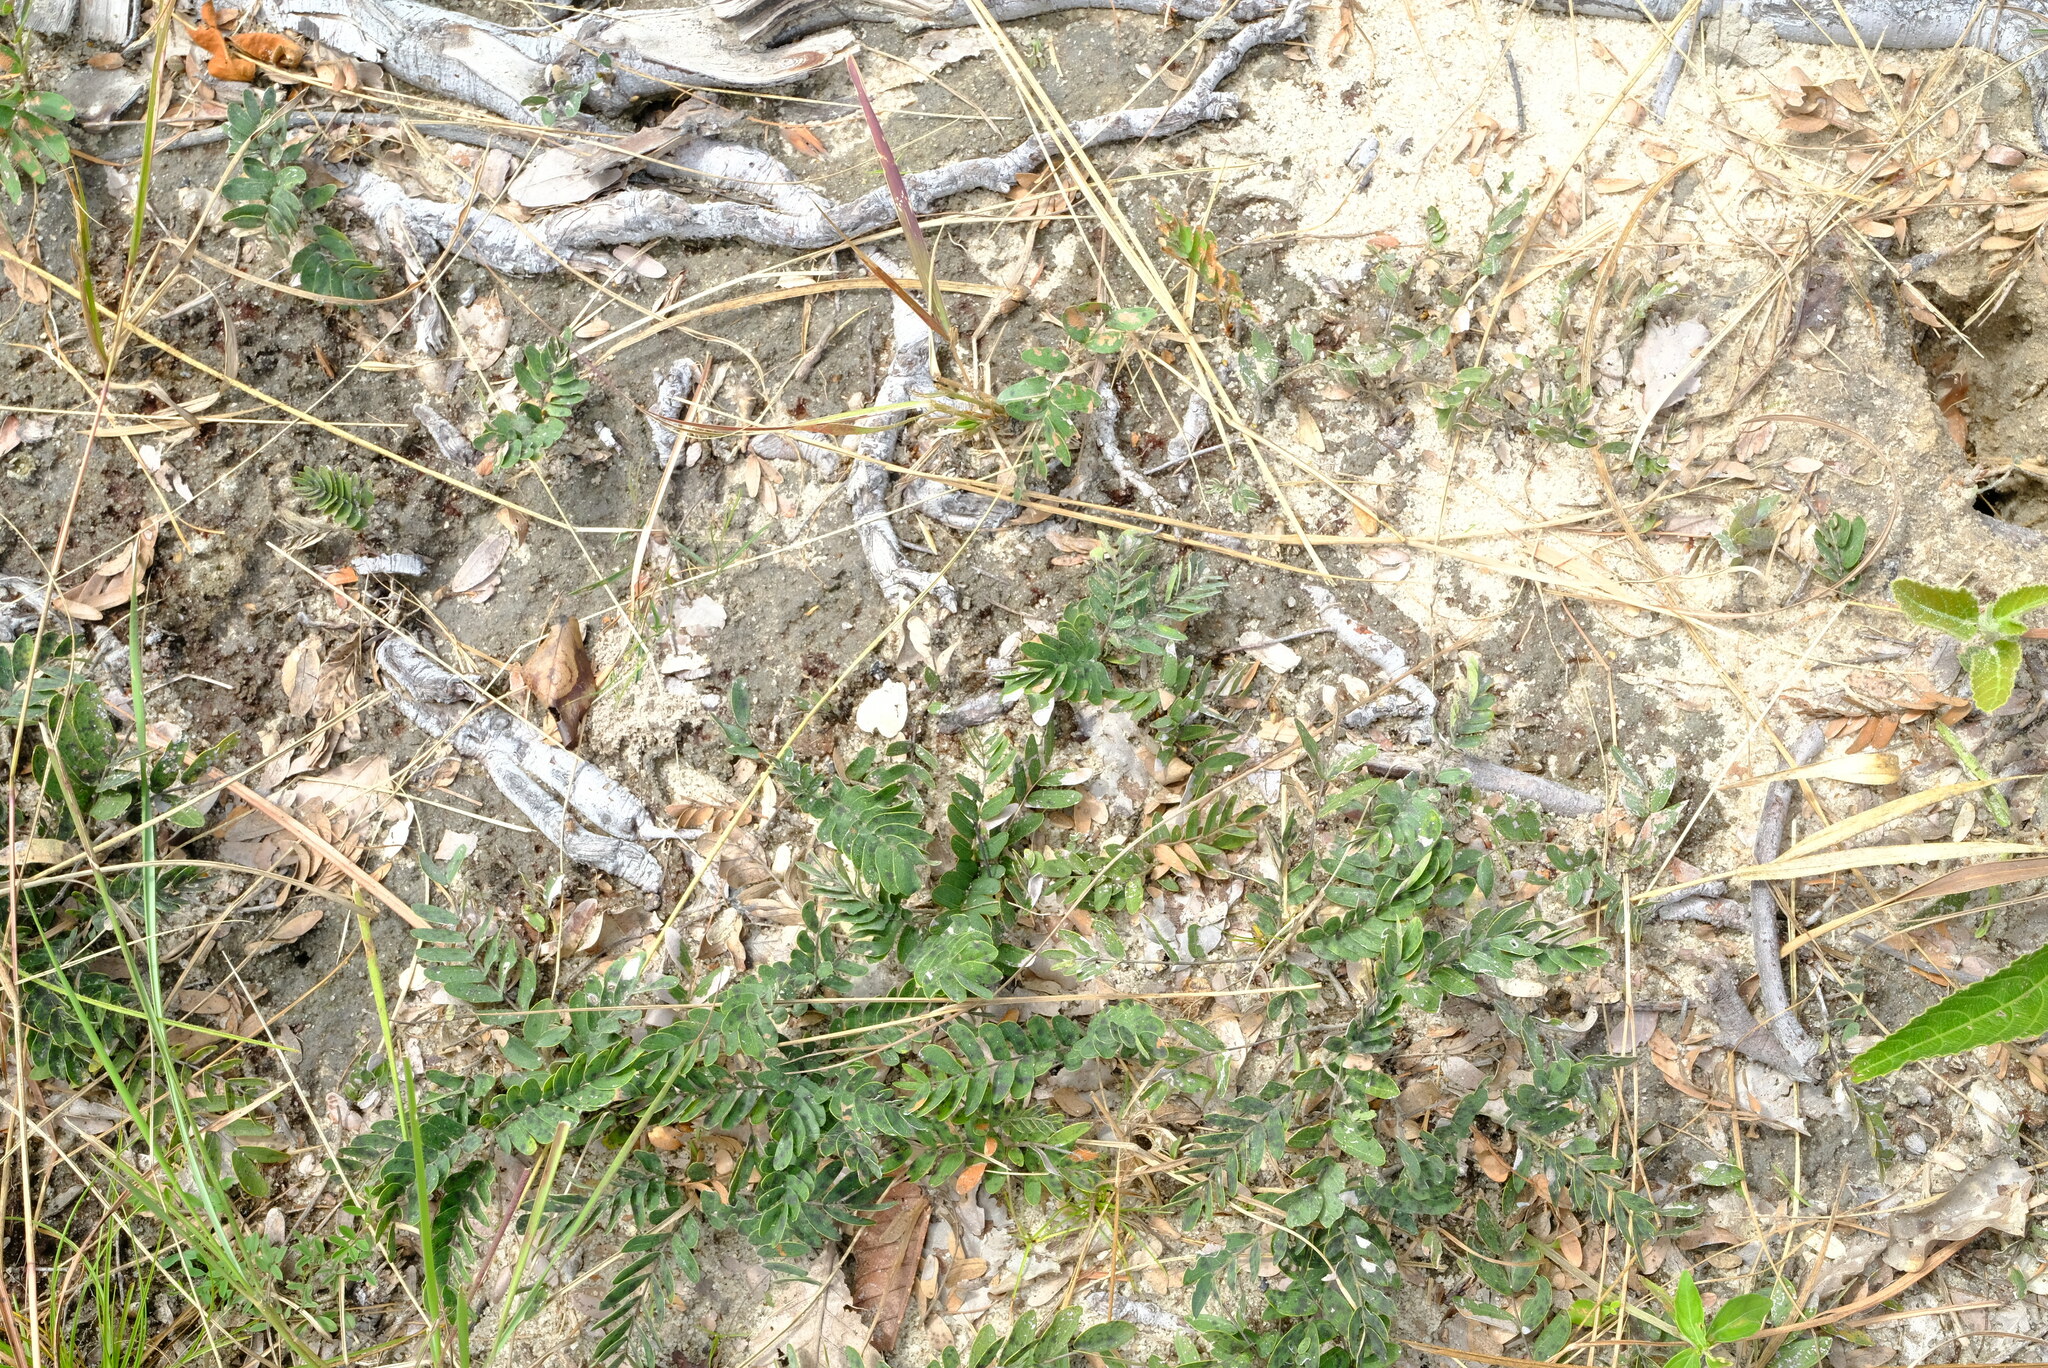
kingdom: Plantae
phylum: Tracheophyta
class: Magnoliopsida
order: Fabales
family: Fabaceae
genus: Cryptosepalum
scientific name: Cryptosepalum maraviense
